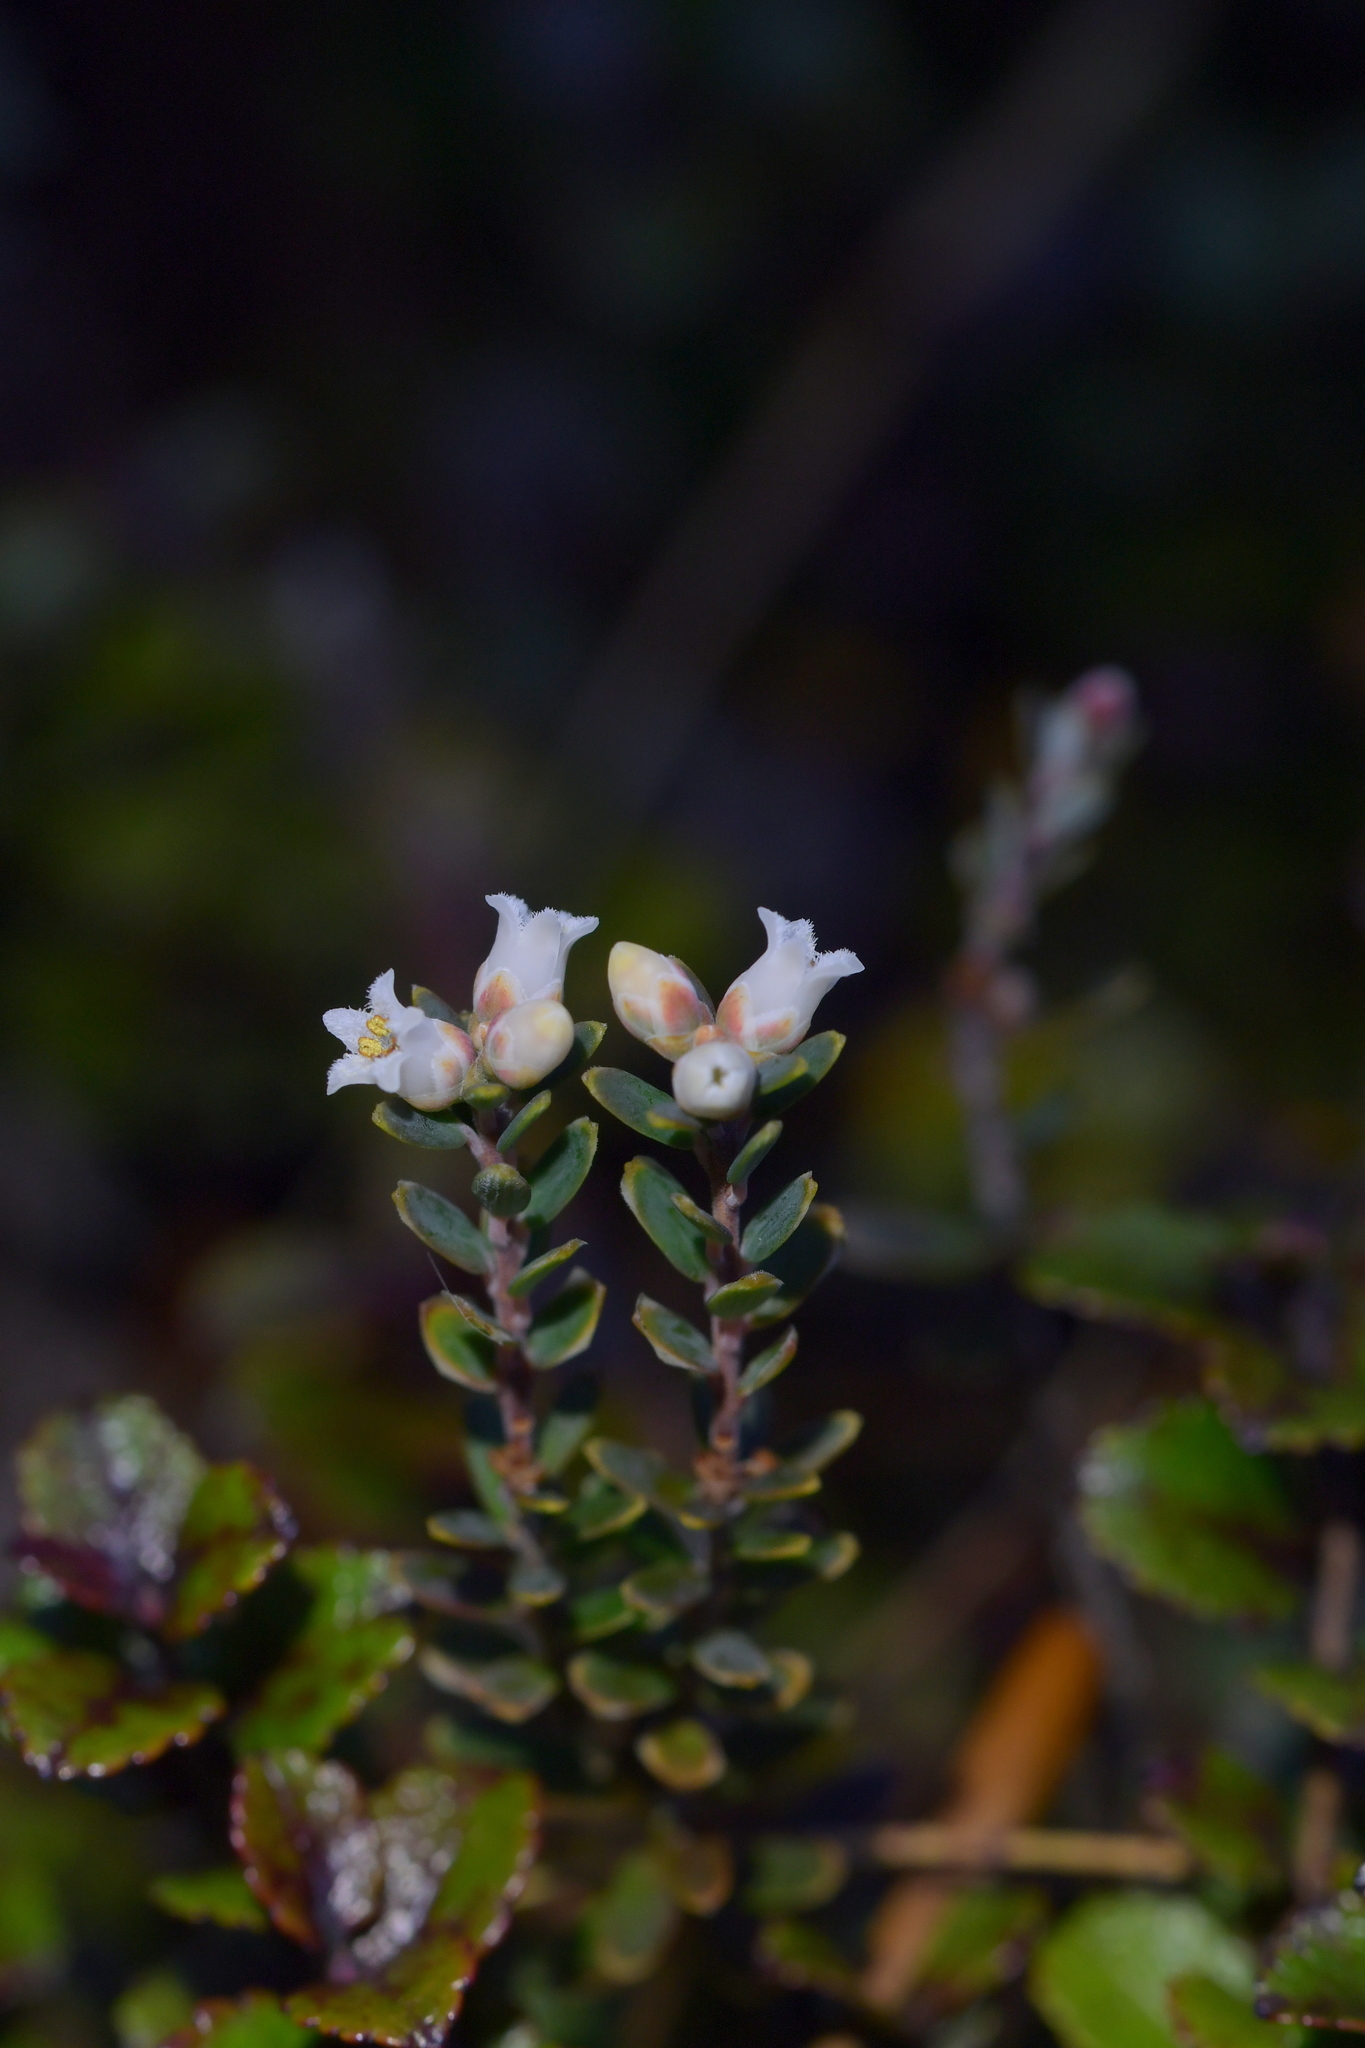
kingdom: Plantae
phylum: Tracheophyta
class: Magnoliopsida
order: Ericales
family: Ericaceae
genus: Acrothamnus
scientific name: Acrothamnus colensoi
